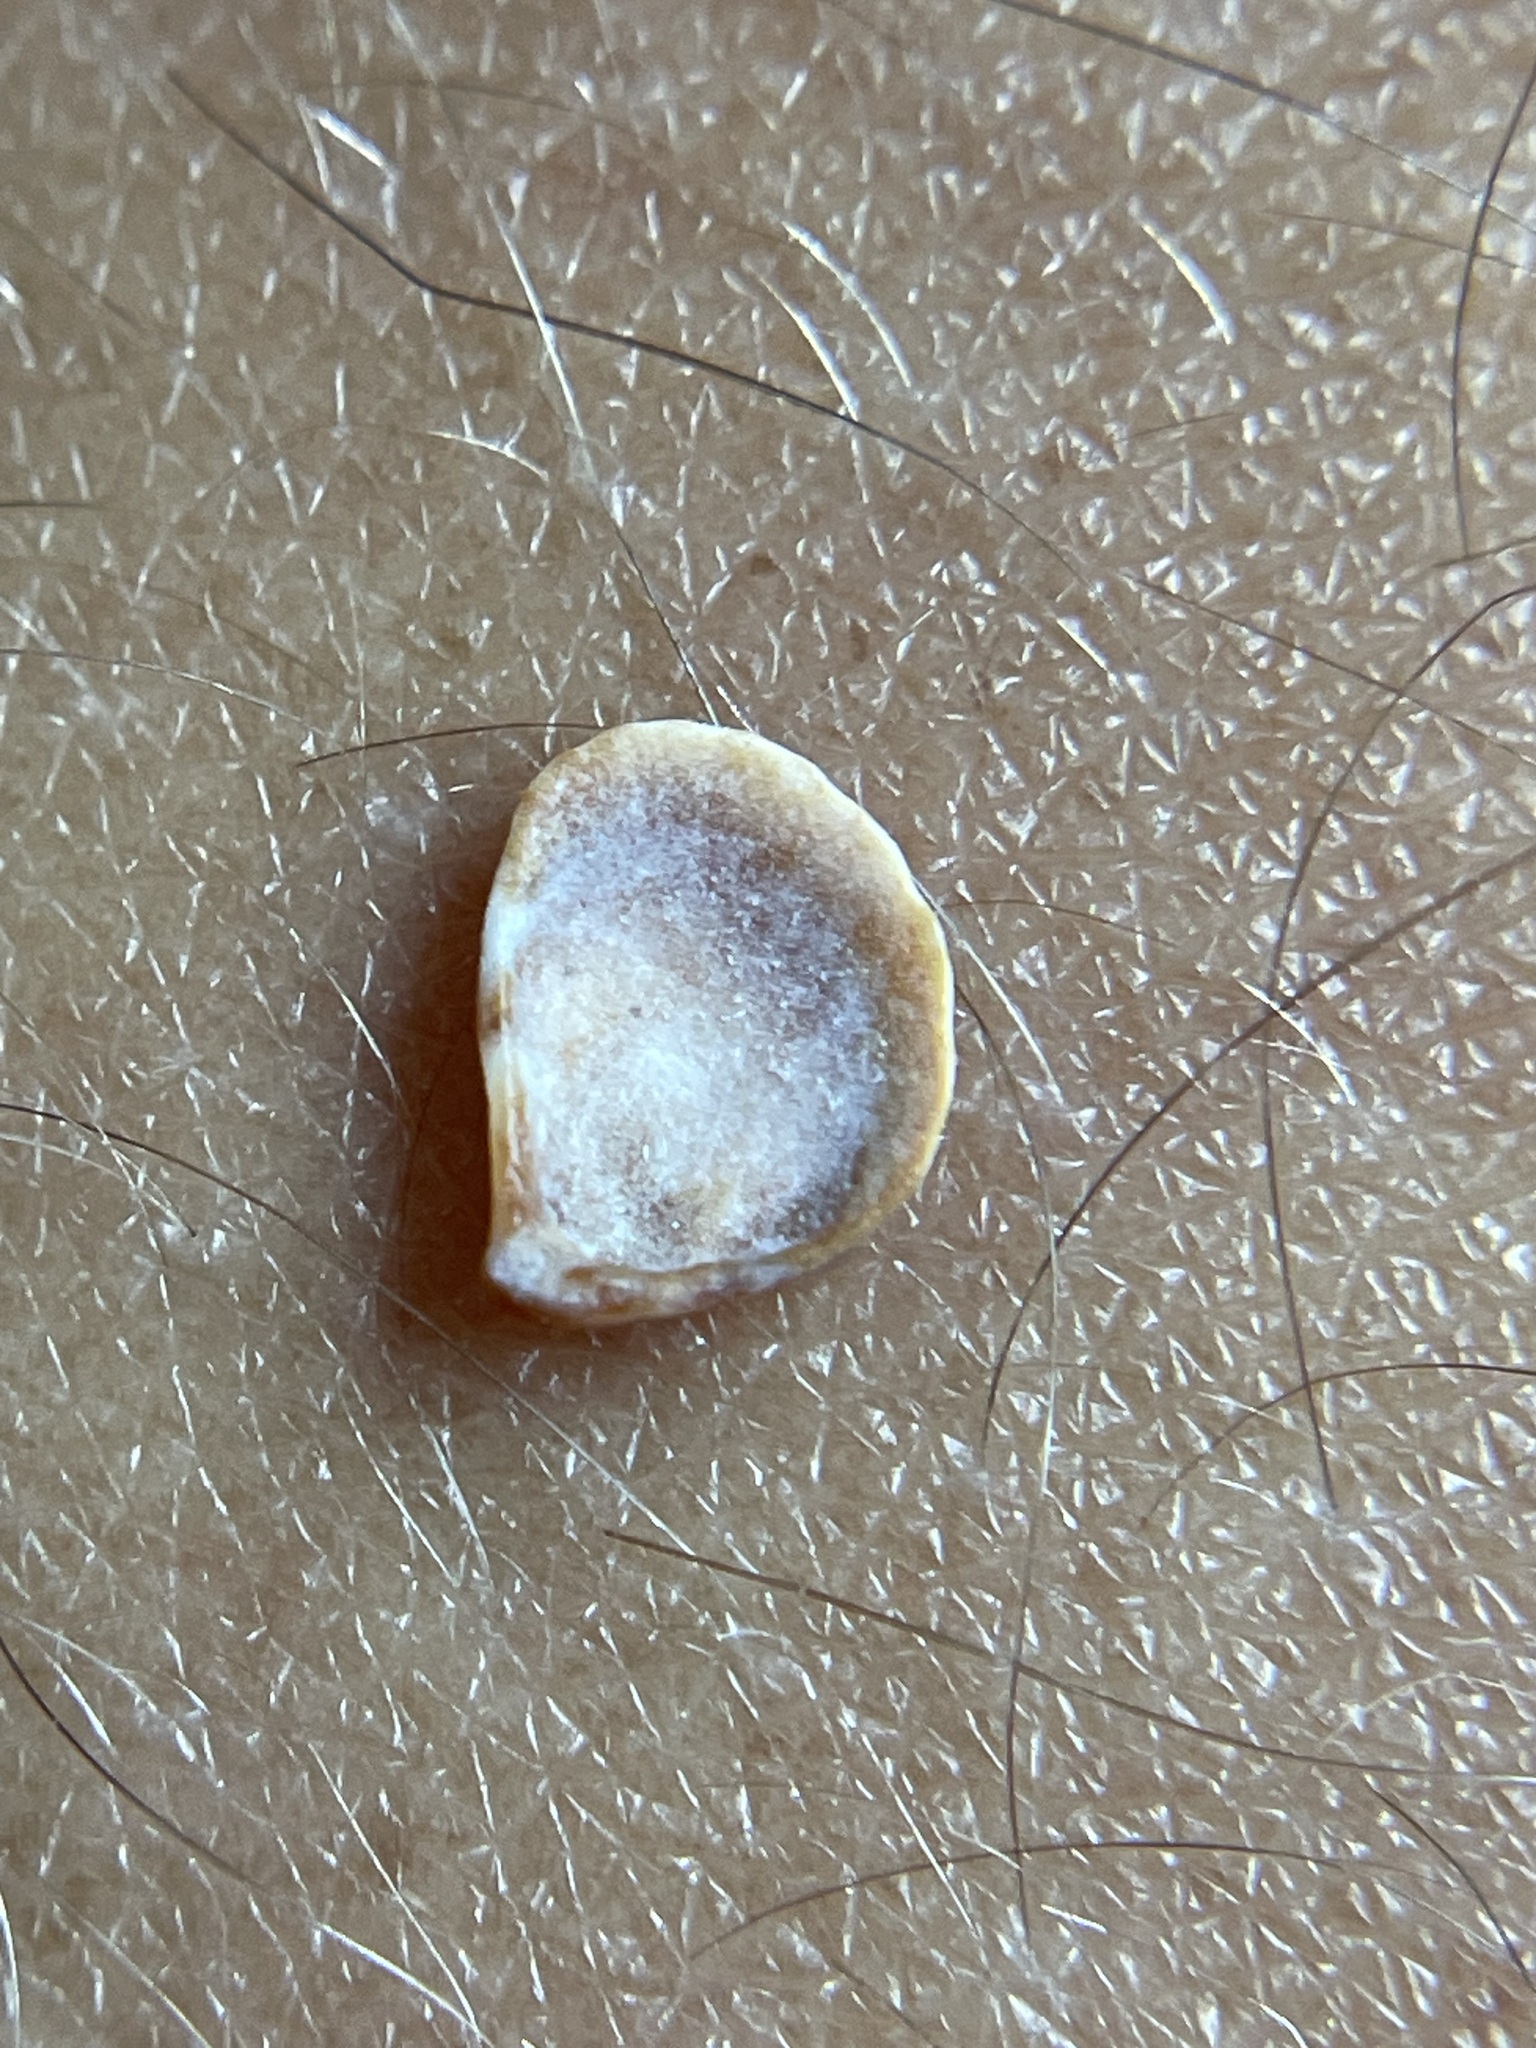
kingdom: Animalia
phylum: Mollusca
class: Bivalvia
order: Carditida
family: Carditidae
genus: Pteromeris
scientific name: Pteromeris perplana
